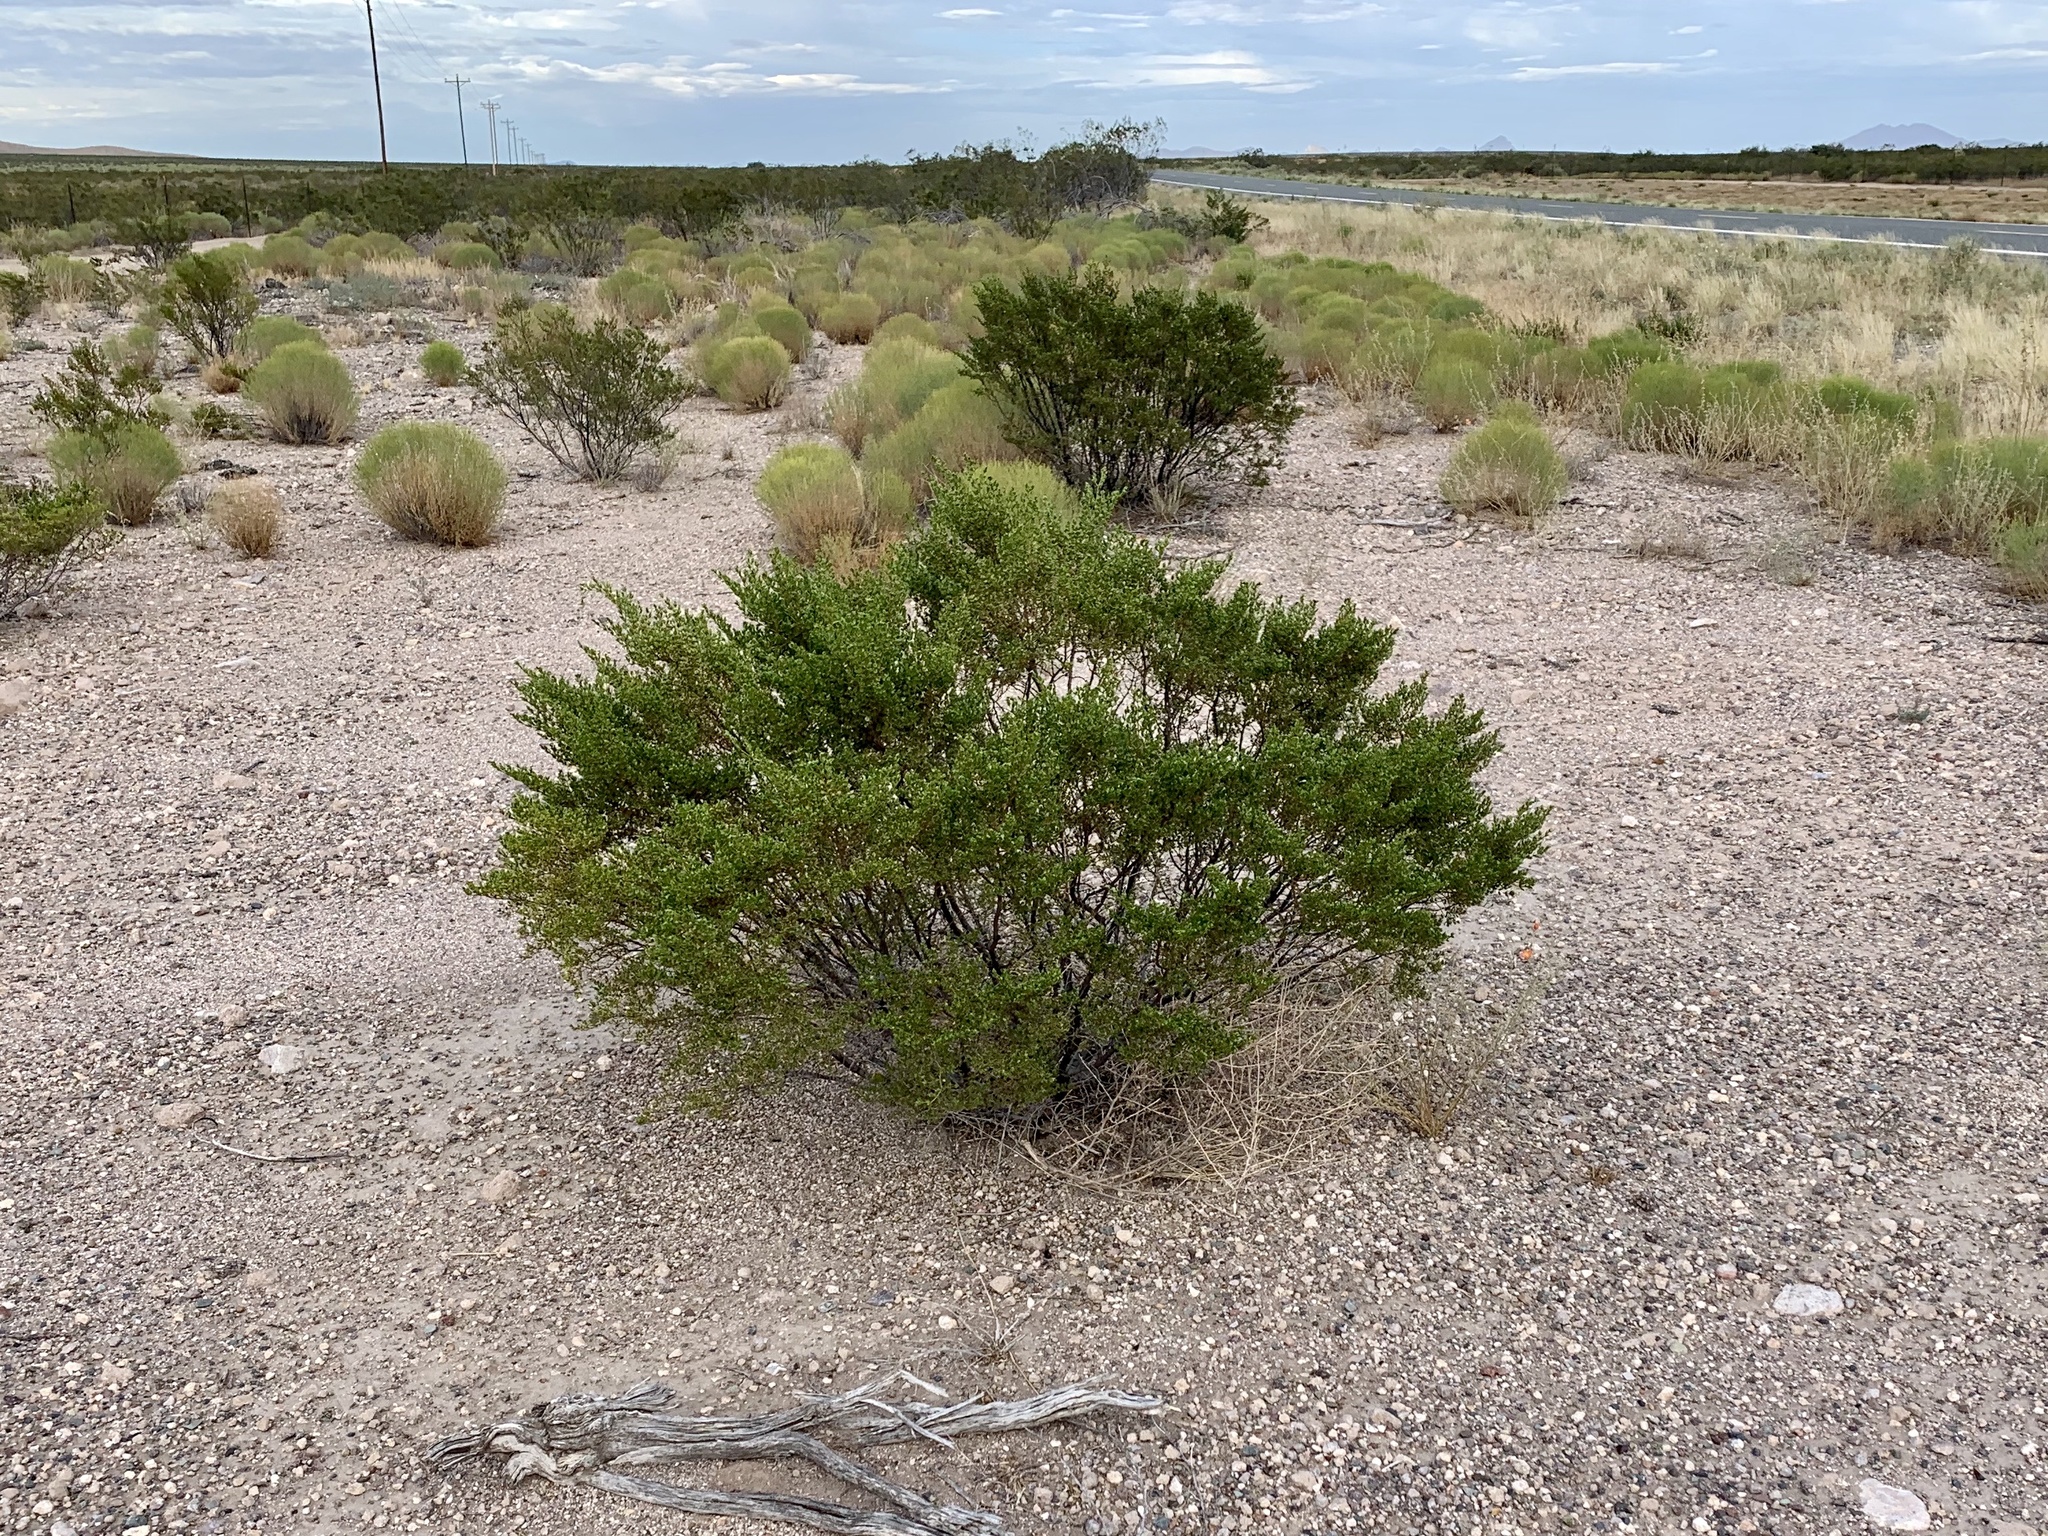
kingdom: Plantae
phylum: Tracheophyta
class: Magnoliopsida
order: Zygophyllales
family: Zygophyllaceae
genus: Larrea
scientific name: Larrea tridentata
